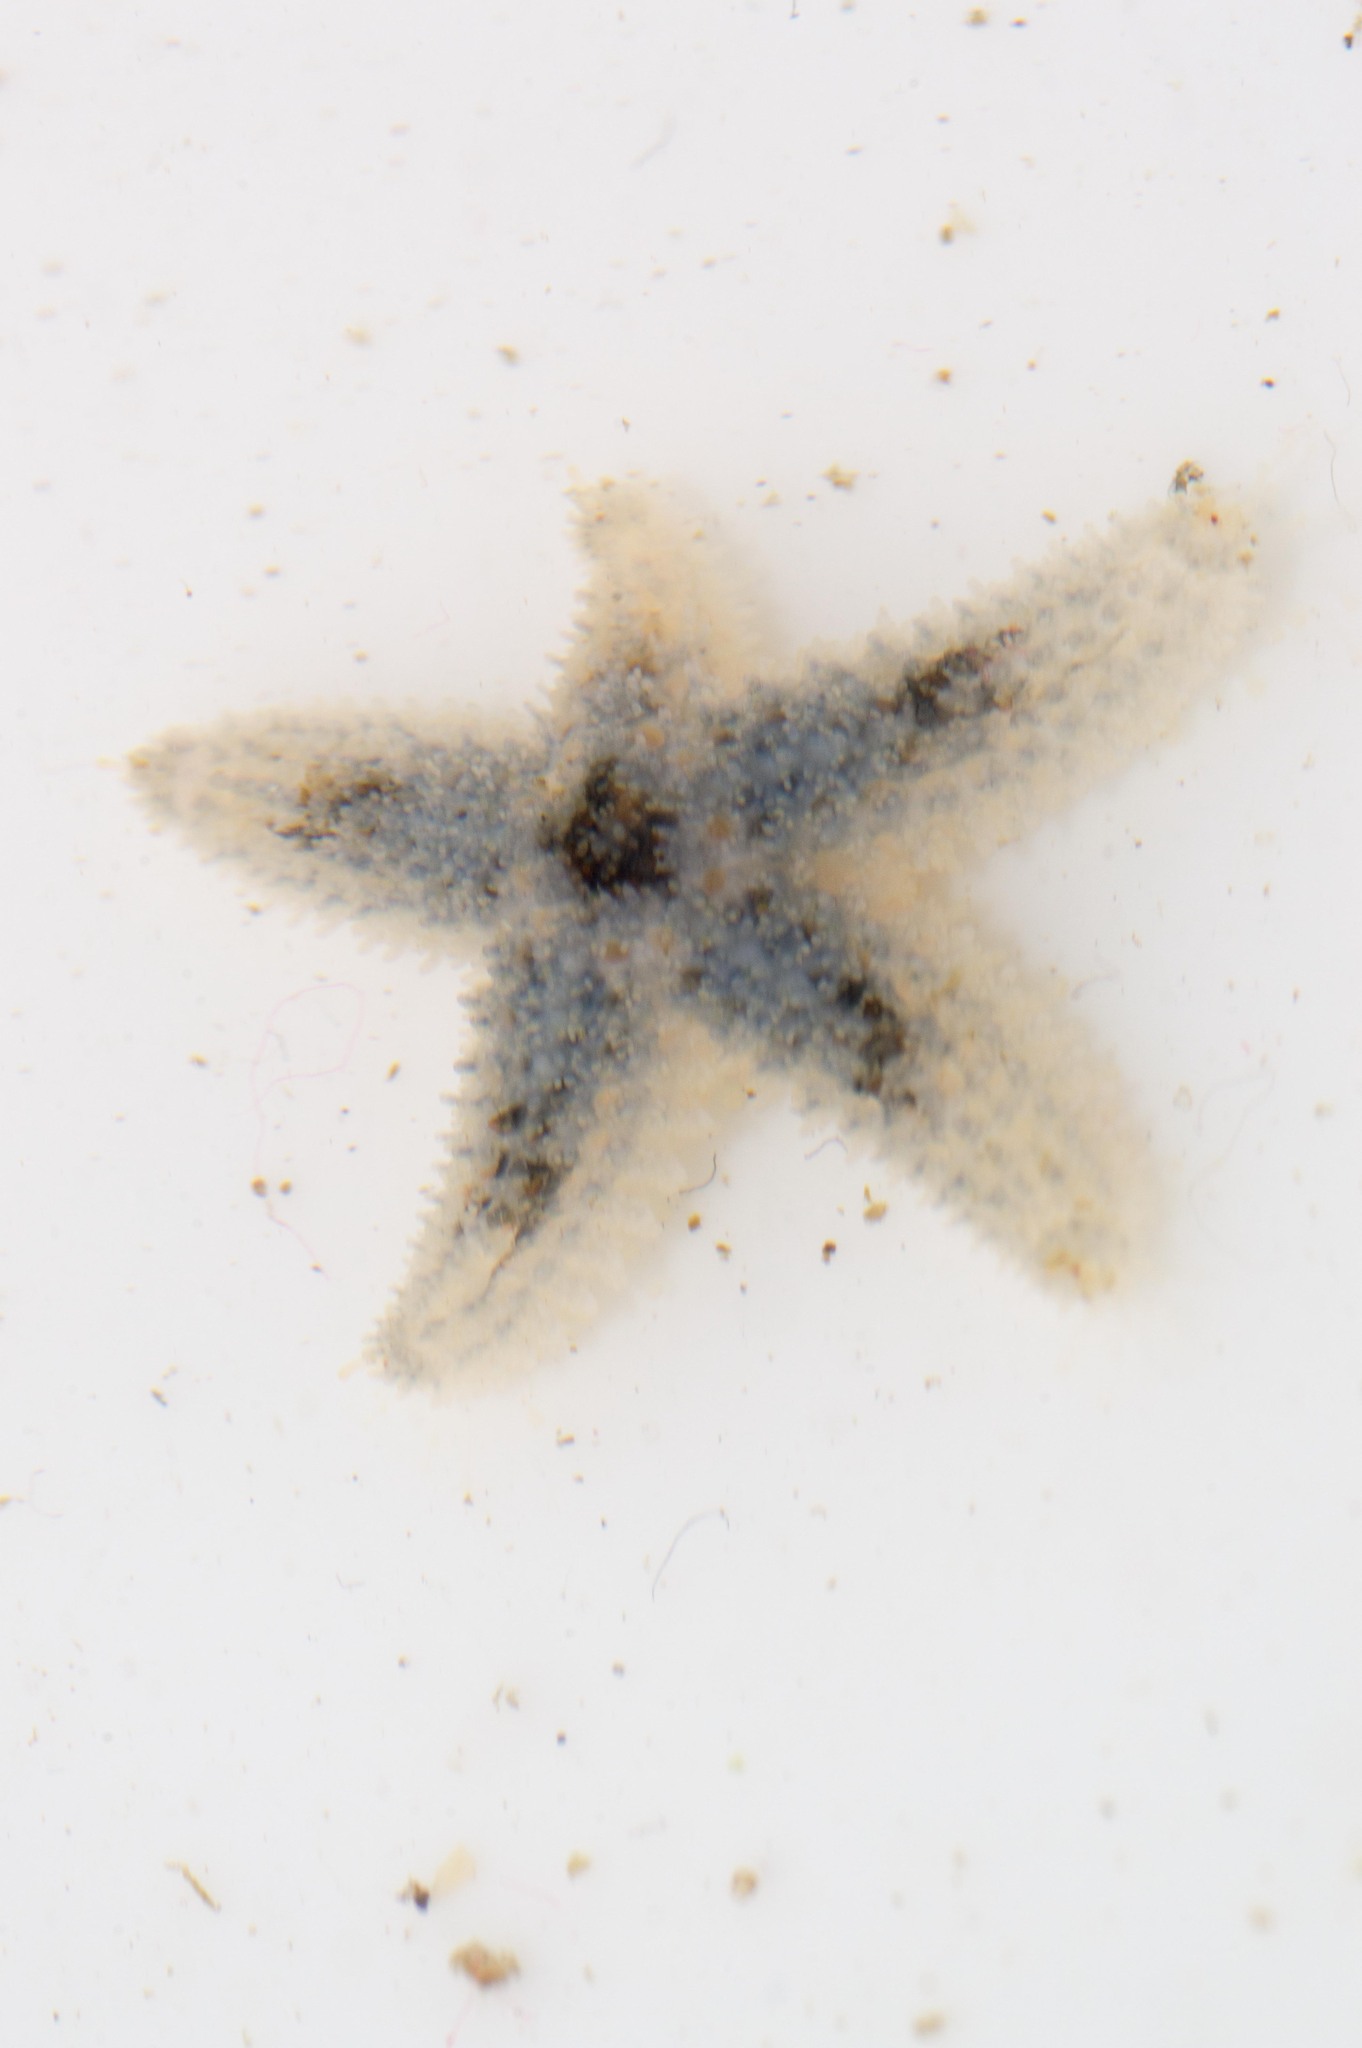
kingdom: Animalia
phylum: Echinodermata
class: Asteroidea
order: Forcipulatida
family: Asteriidae
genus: Pisaster
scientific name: Pisaster ochraceus
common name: Ochre stars
